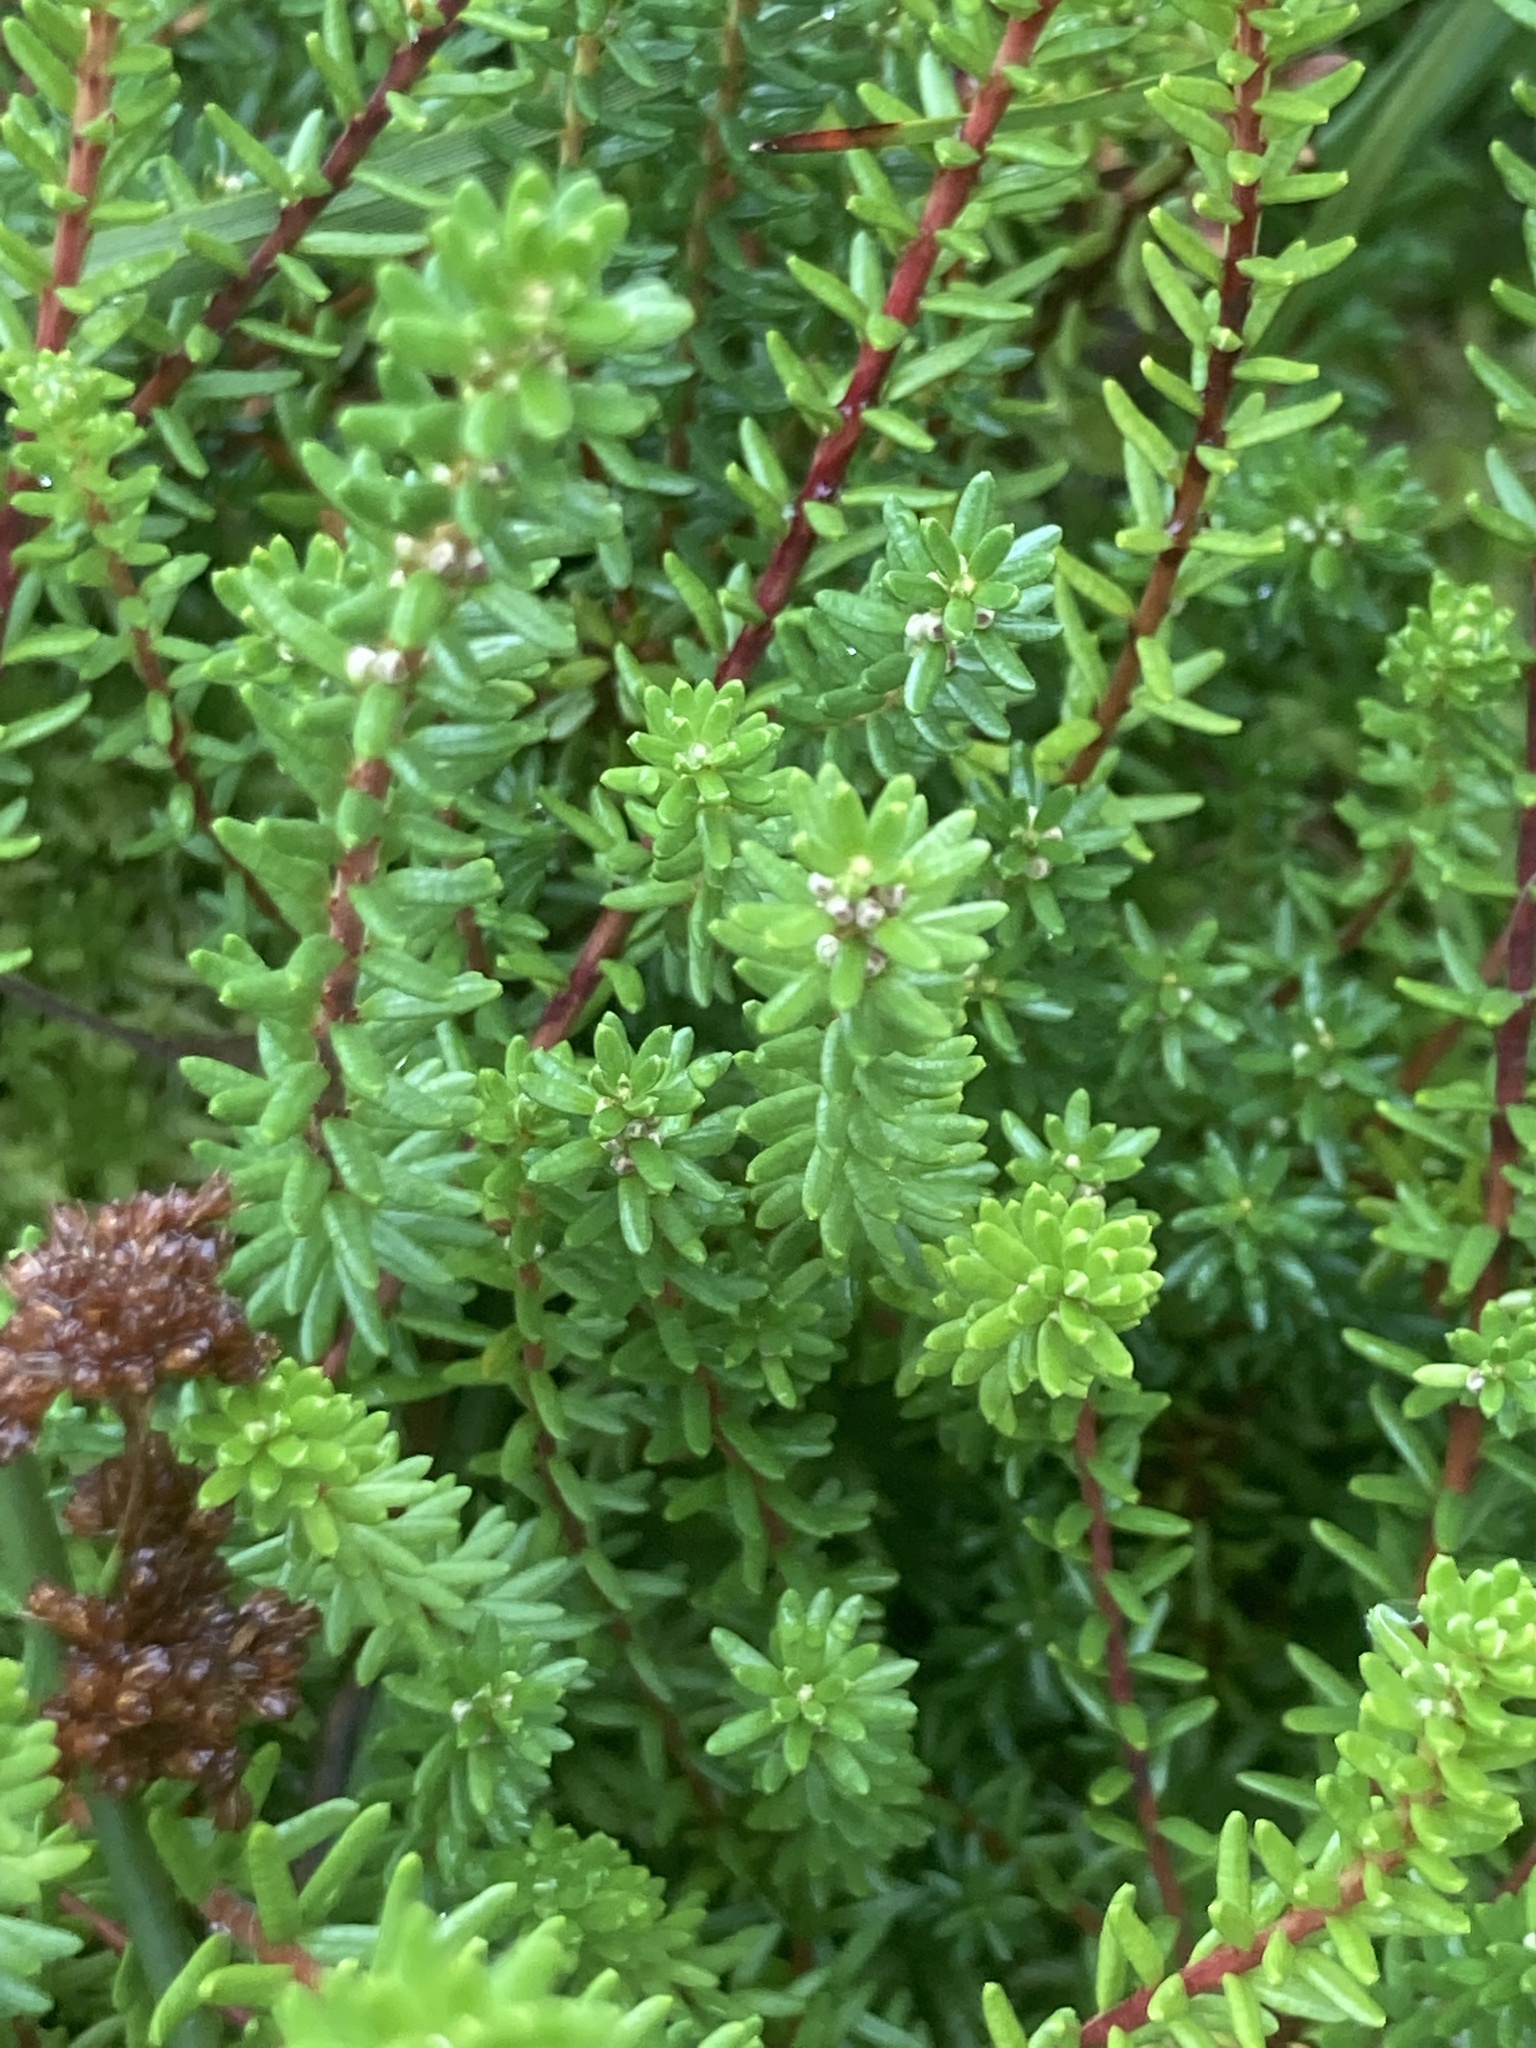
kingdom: Plantae
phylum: Tracheophyta
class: Magnoliopsida
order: Ericales
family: Ericaceae
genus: Empetrum
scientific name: Empetrum nigrum
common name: Black crowberry
